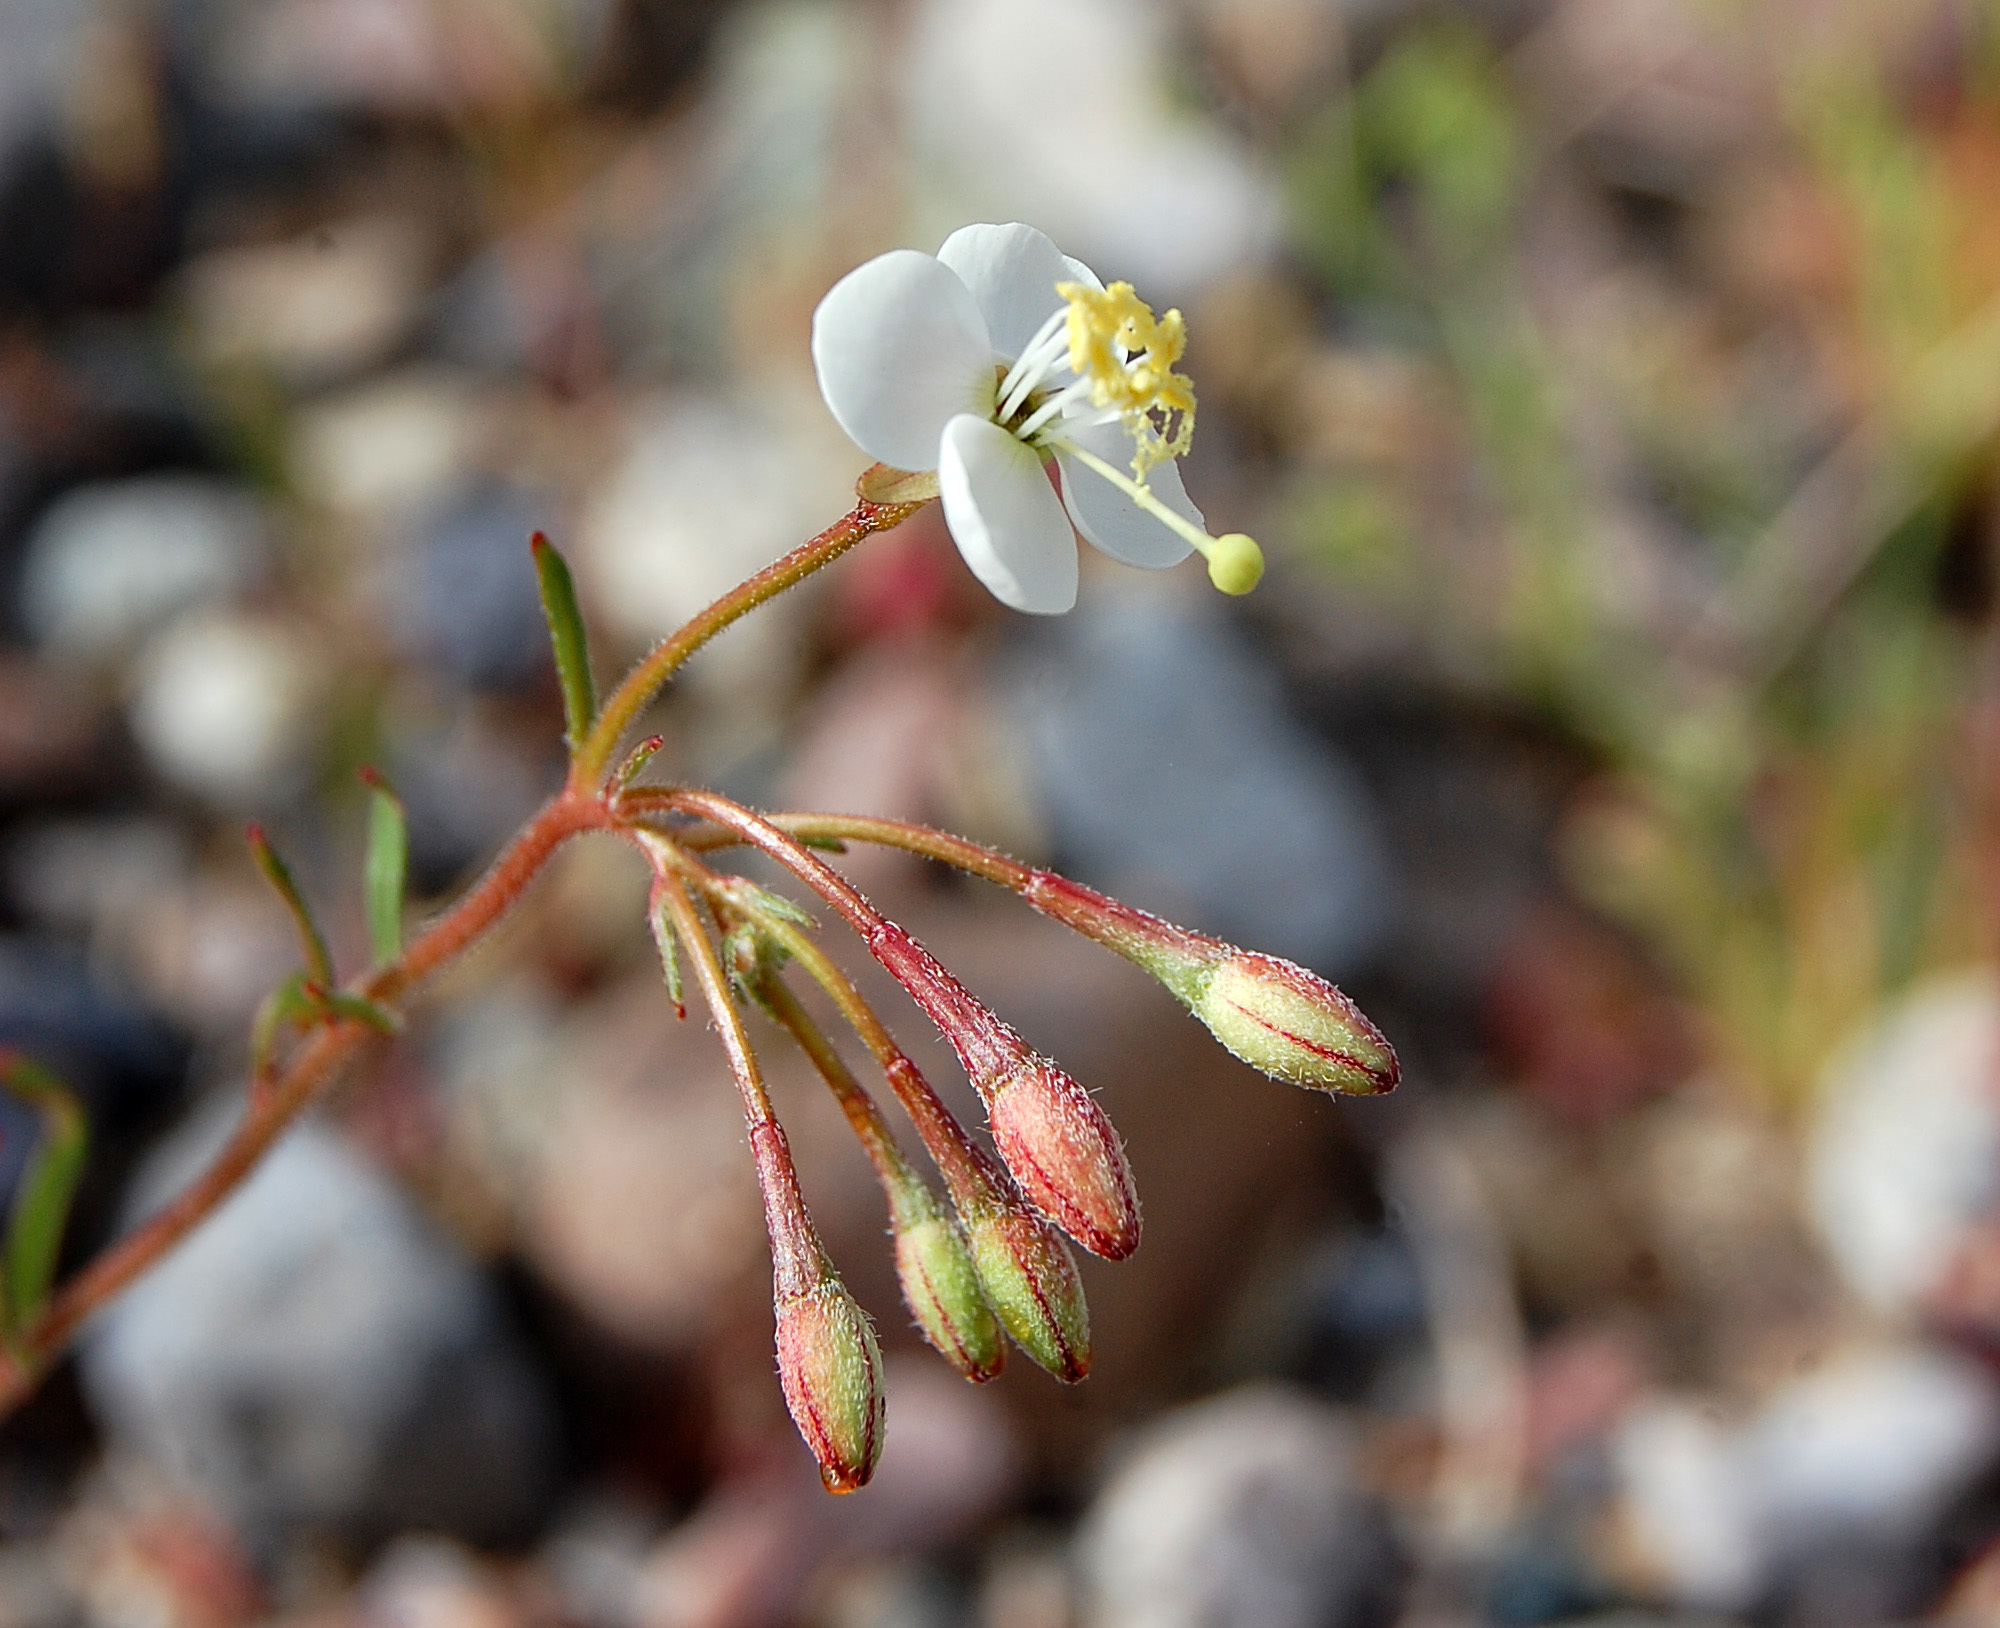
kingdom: Plantae
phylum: Tracheophyta
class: Magnoliopsida
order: Myrtales
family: Onagraceae
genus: Chylismia
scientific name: Chylismia claviformis
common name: Browneyes
